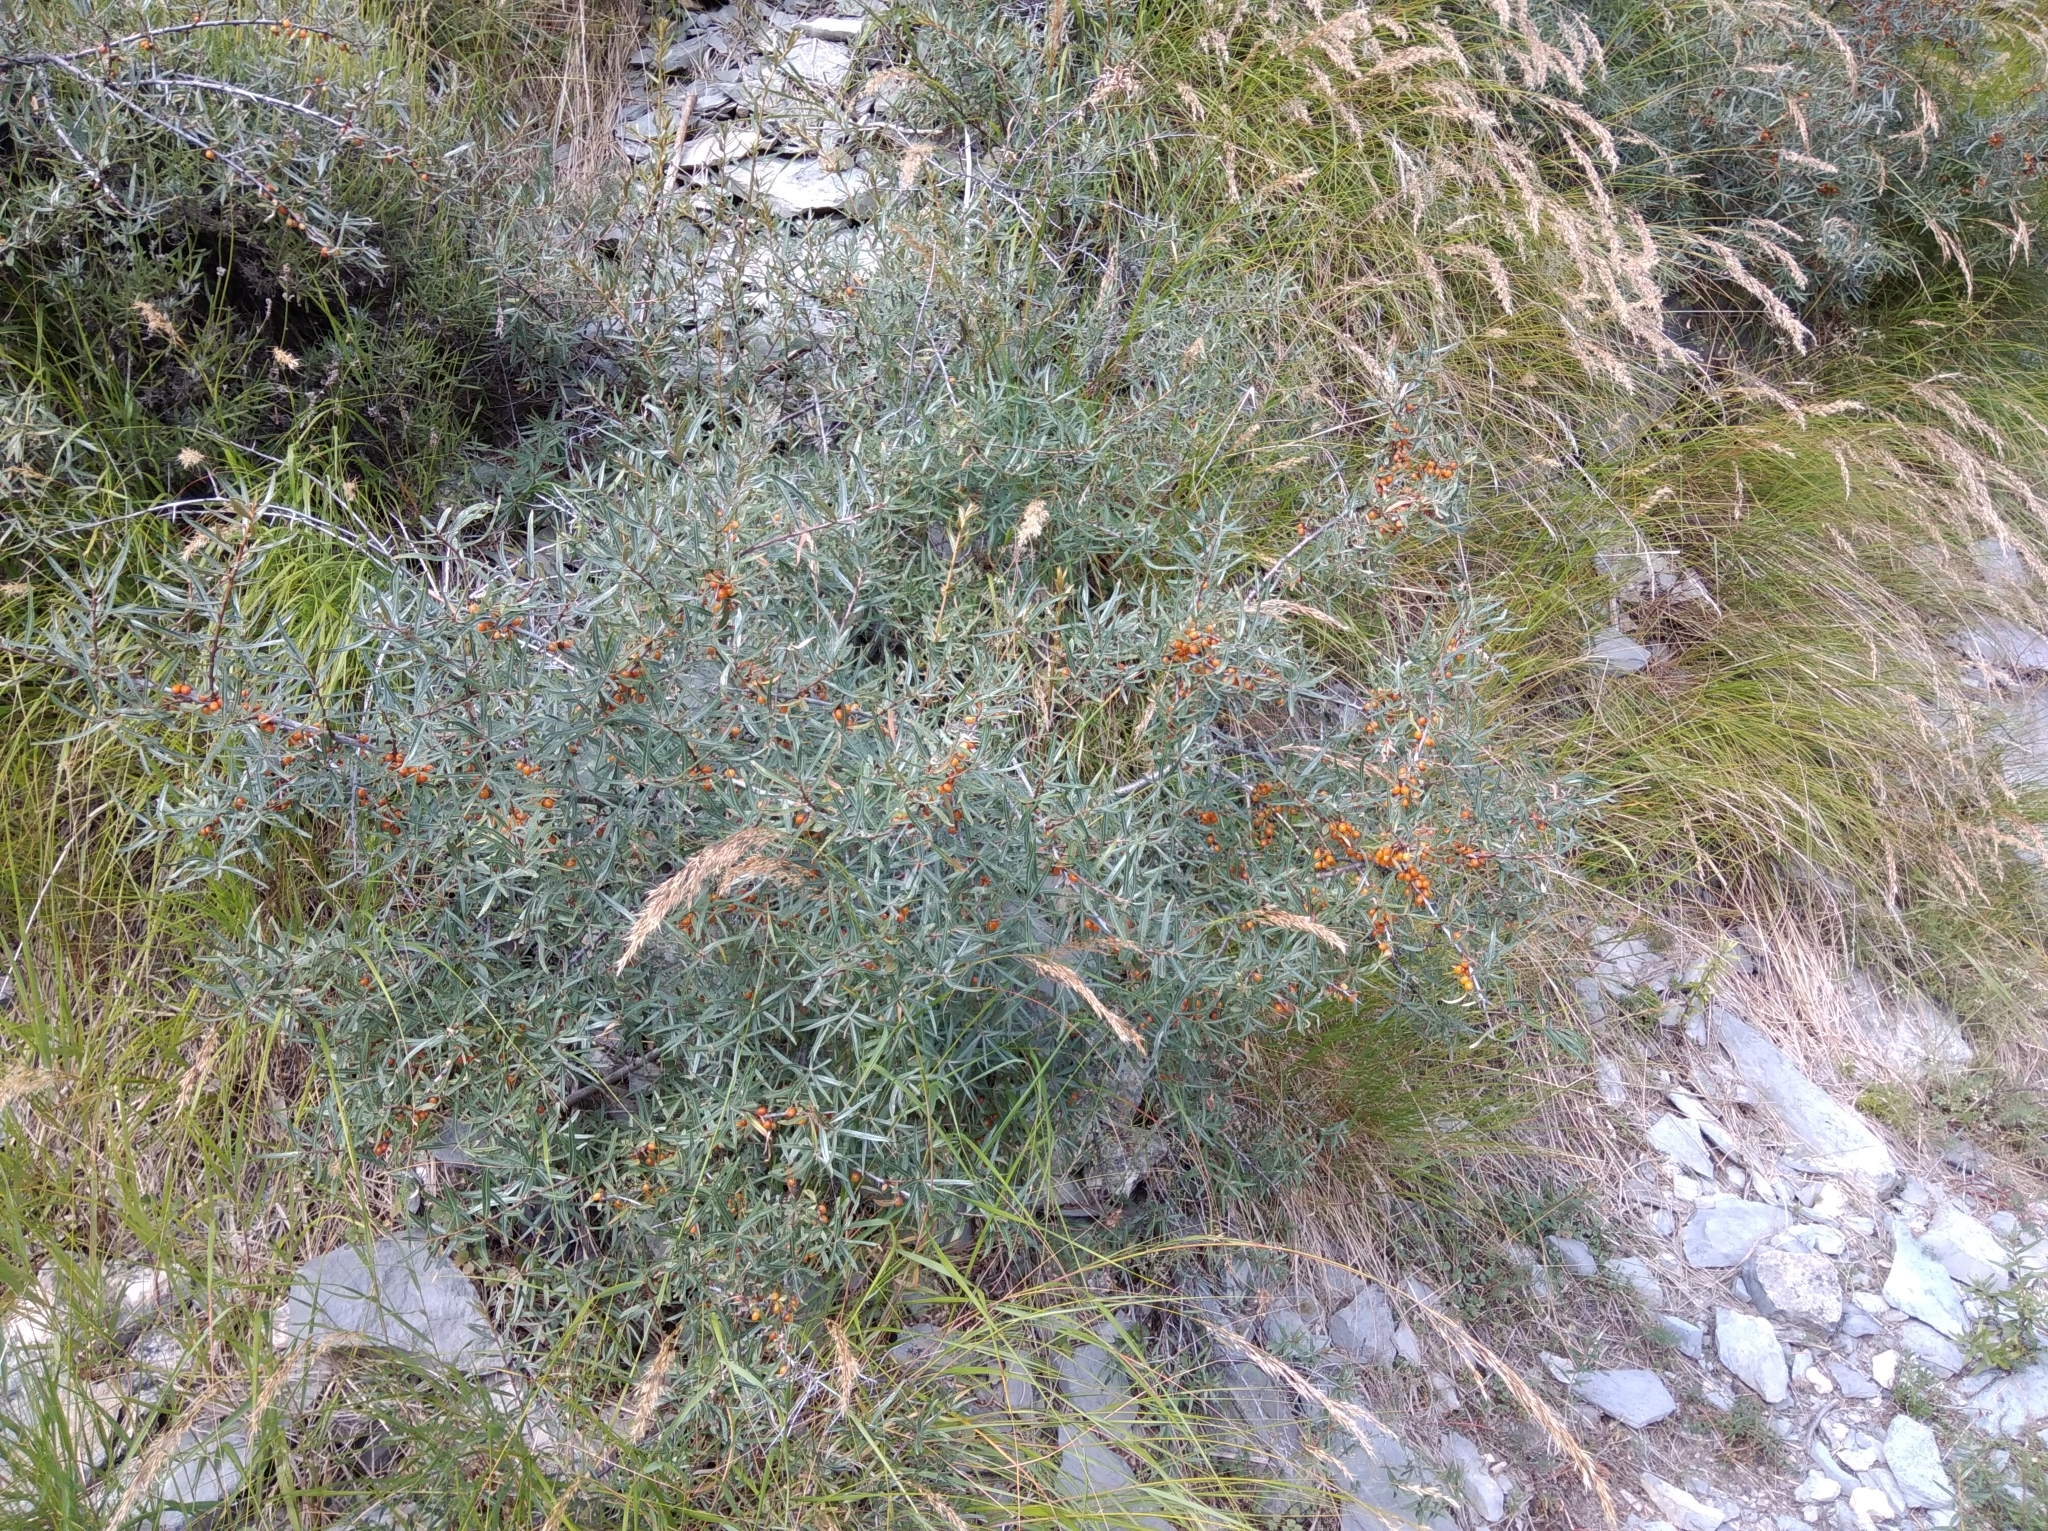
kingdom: Plantae
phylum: Tracheophyta
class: Magnoliopsida
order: Rosales
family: Elaeagnaceae
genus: Hippophae
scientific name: Hippophae rhamnoides
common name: Sea-buckthorn
